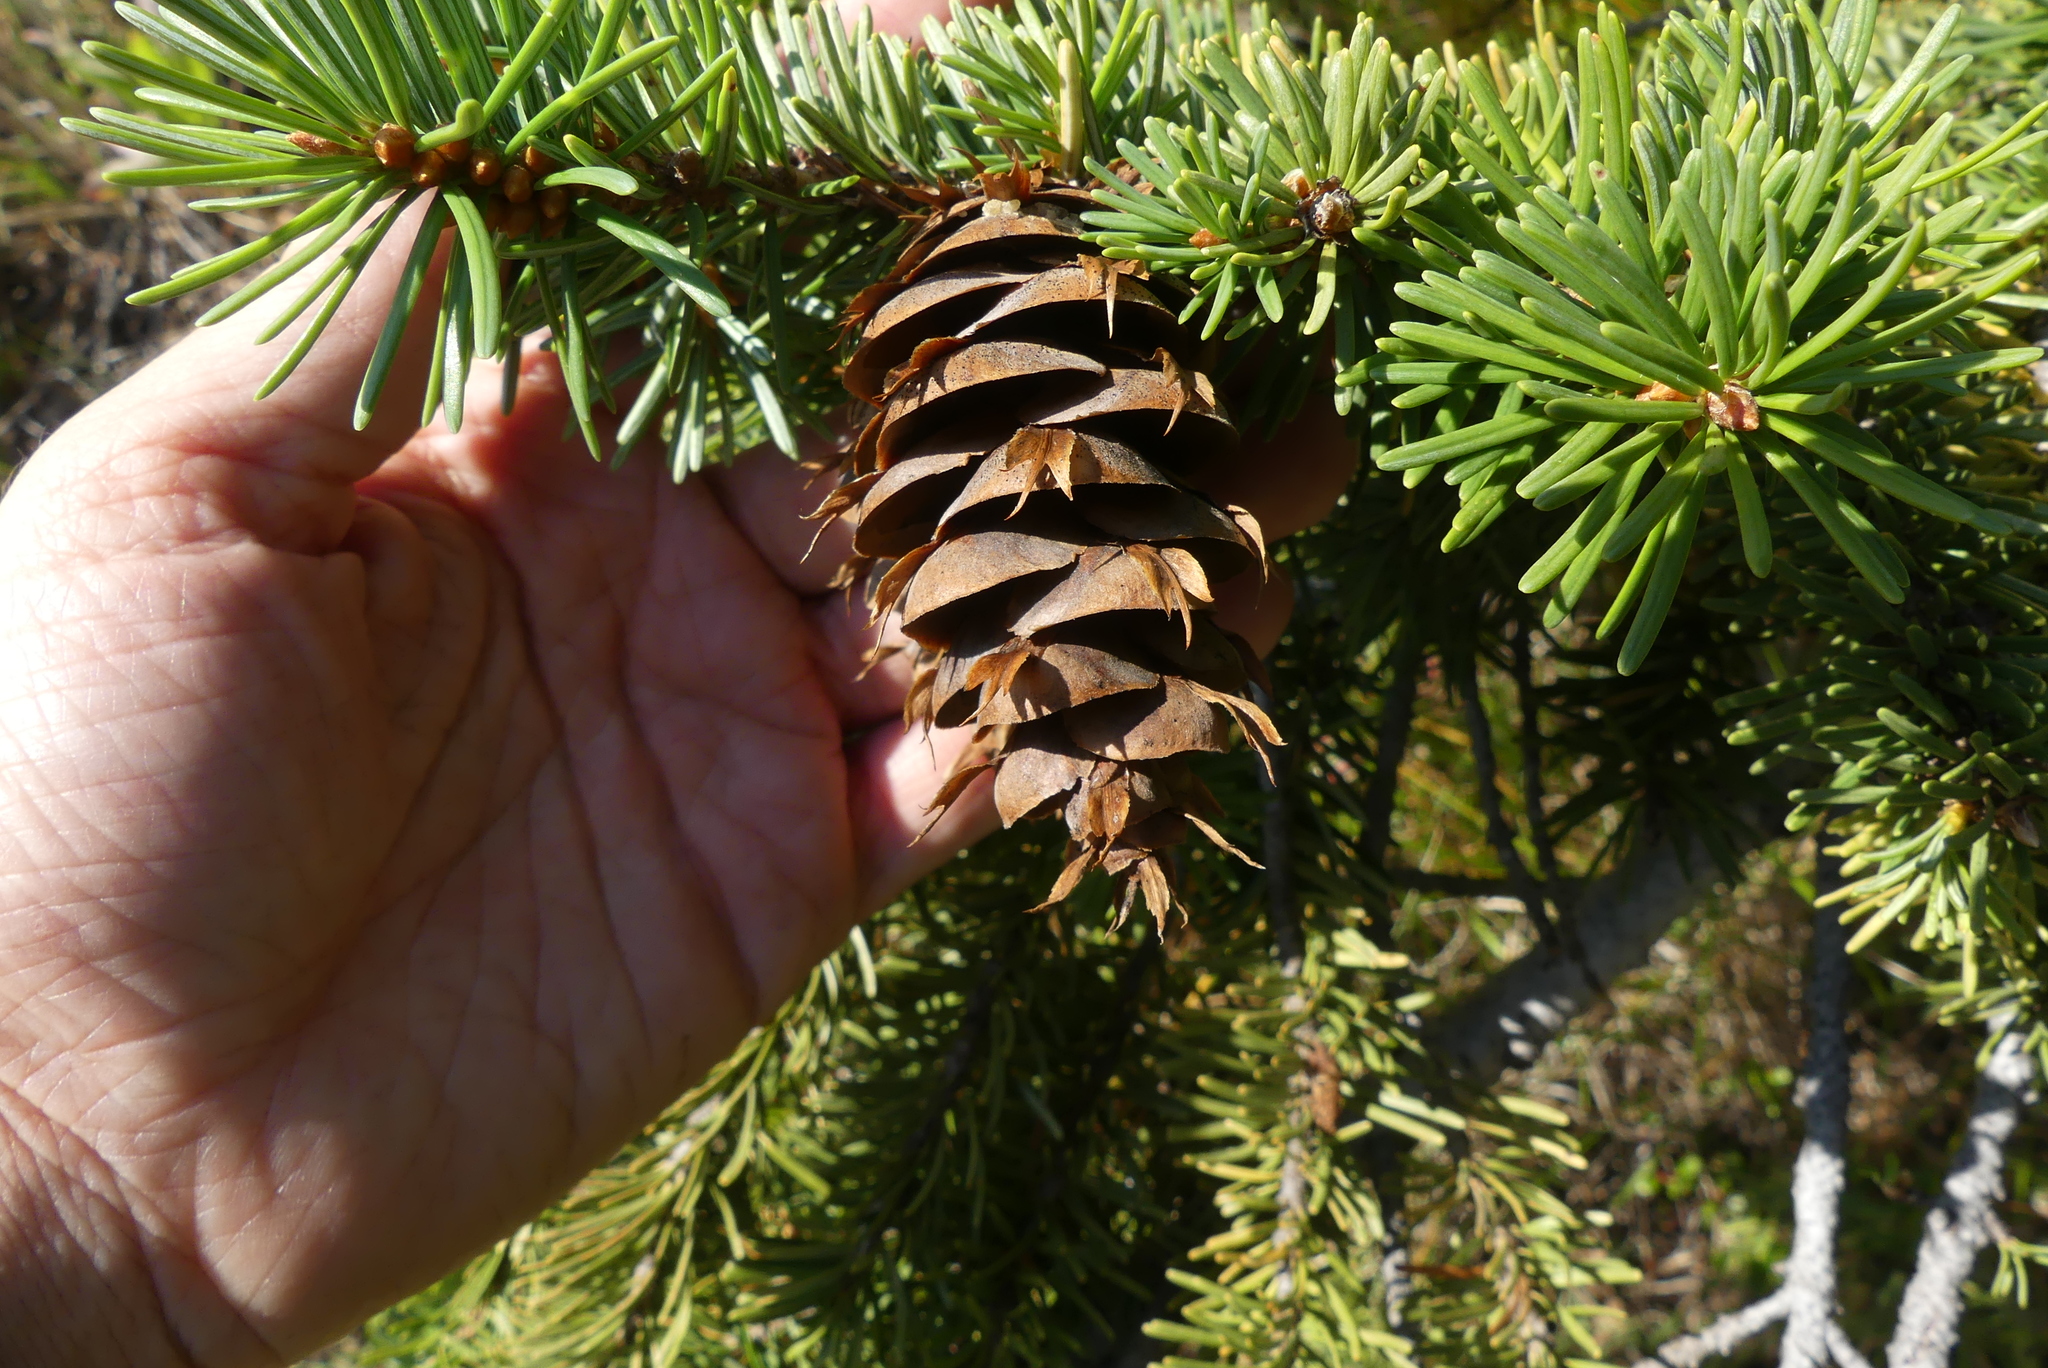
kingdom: Plantae
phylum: Tracheophyta
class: Pinopsida
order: Pinales
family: Pinaceae
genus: Pseudotsuga
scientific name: Pseudotsuga menziesii
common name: Douglas fir
